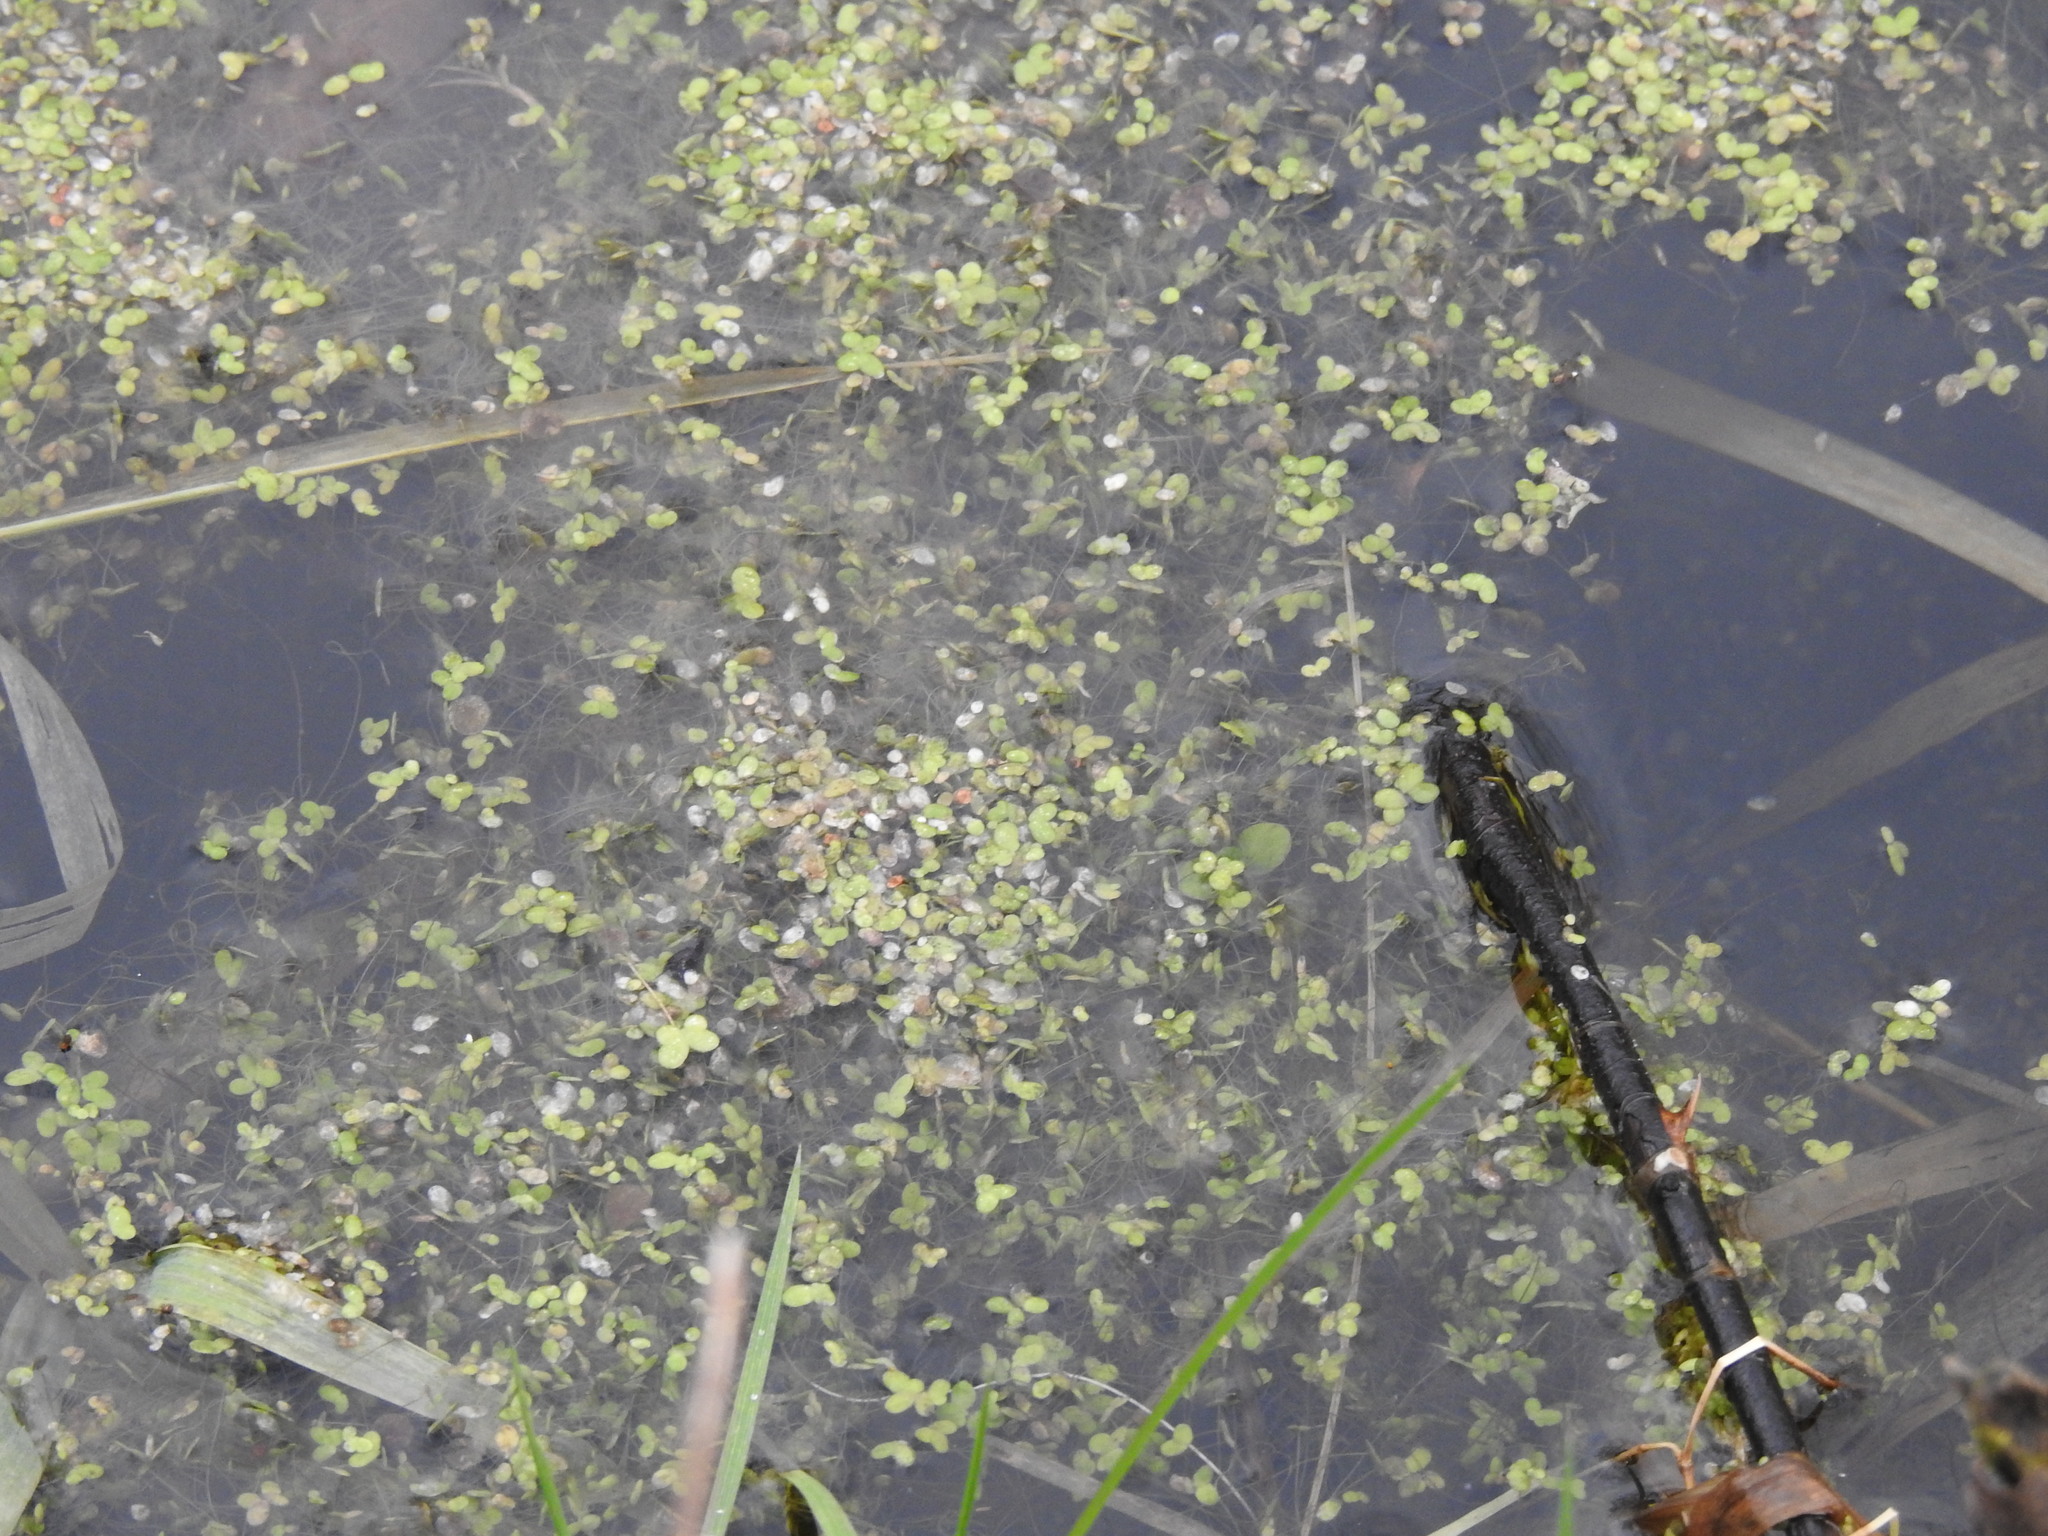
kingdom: Plantae
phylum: Tracheophyta
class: Liliopsida
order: Alismatales
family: Araceae
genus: Lemna
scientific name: Lemna minor
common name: Common duckweed
